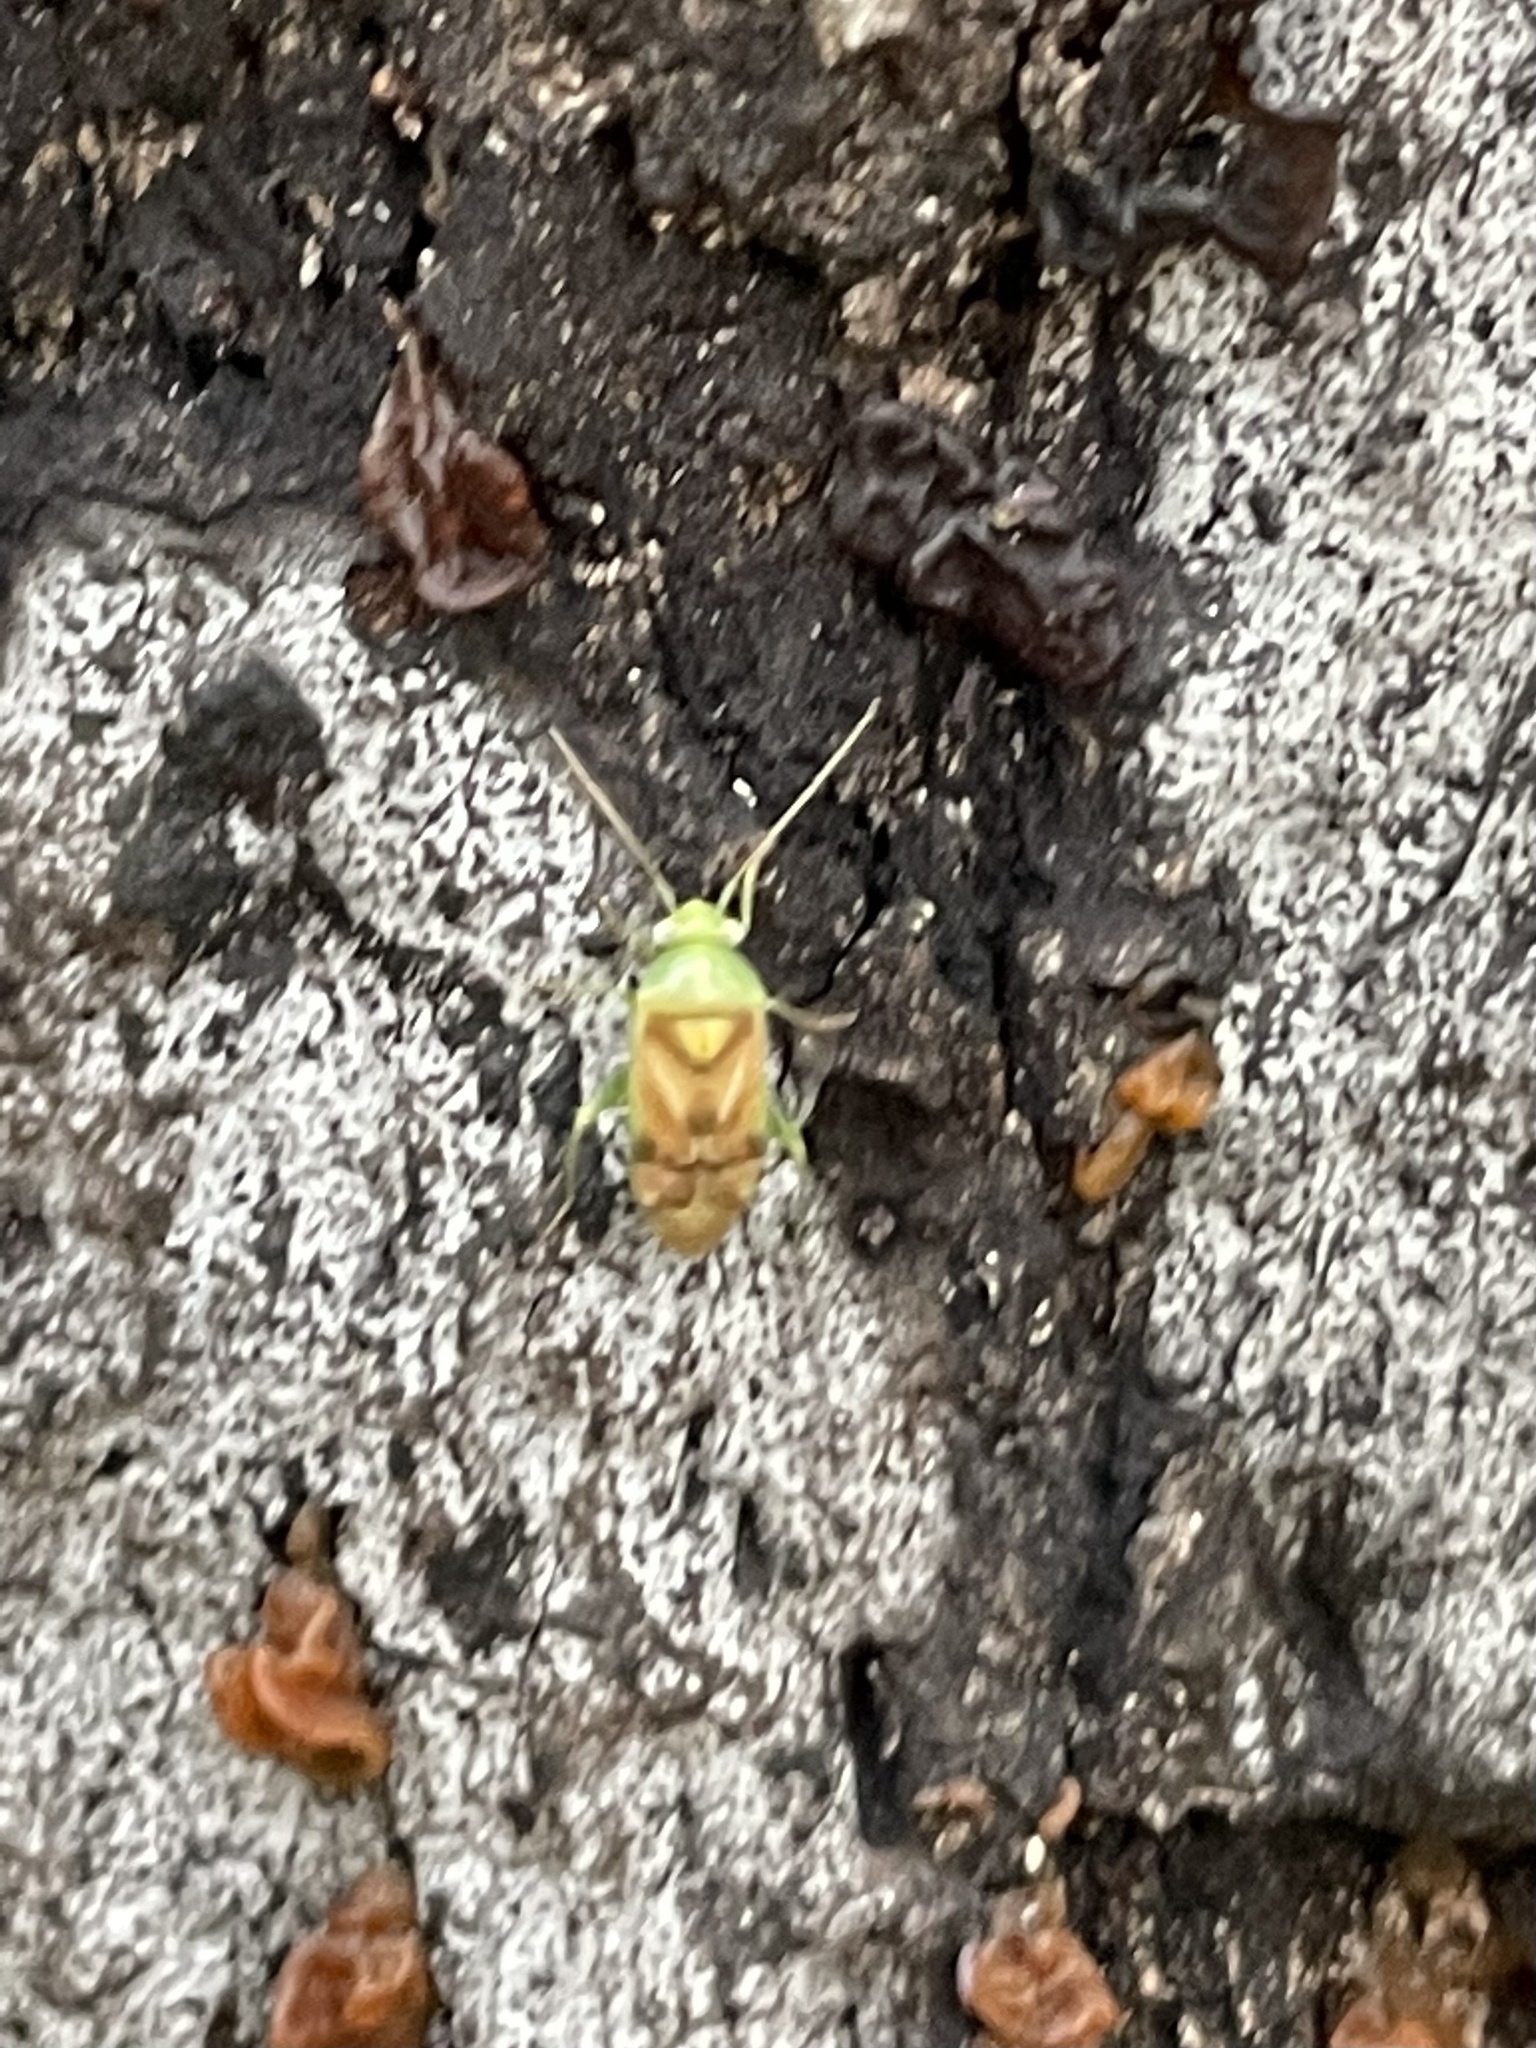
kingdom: Animalia
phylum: Arthropoda
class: Insecta
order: Hemiptera
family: Miridae
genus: Dichrooscytus
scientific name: Dichrooscytus
